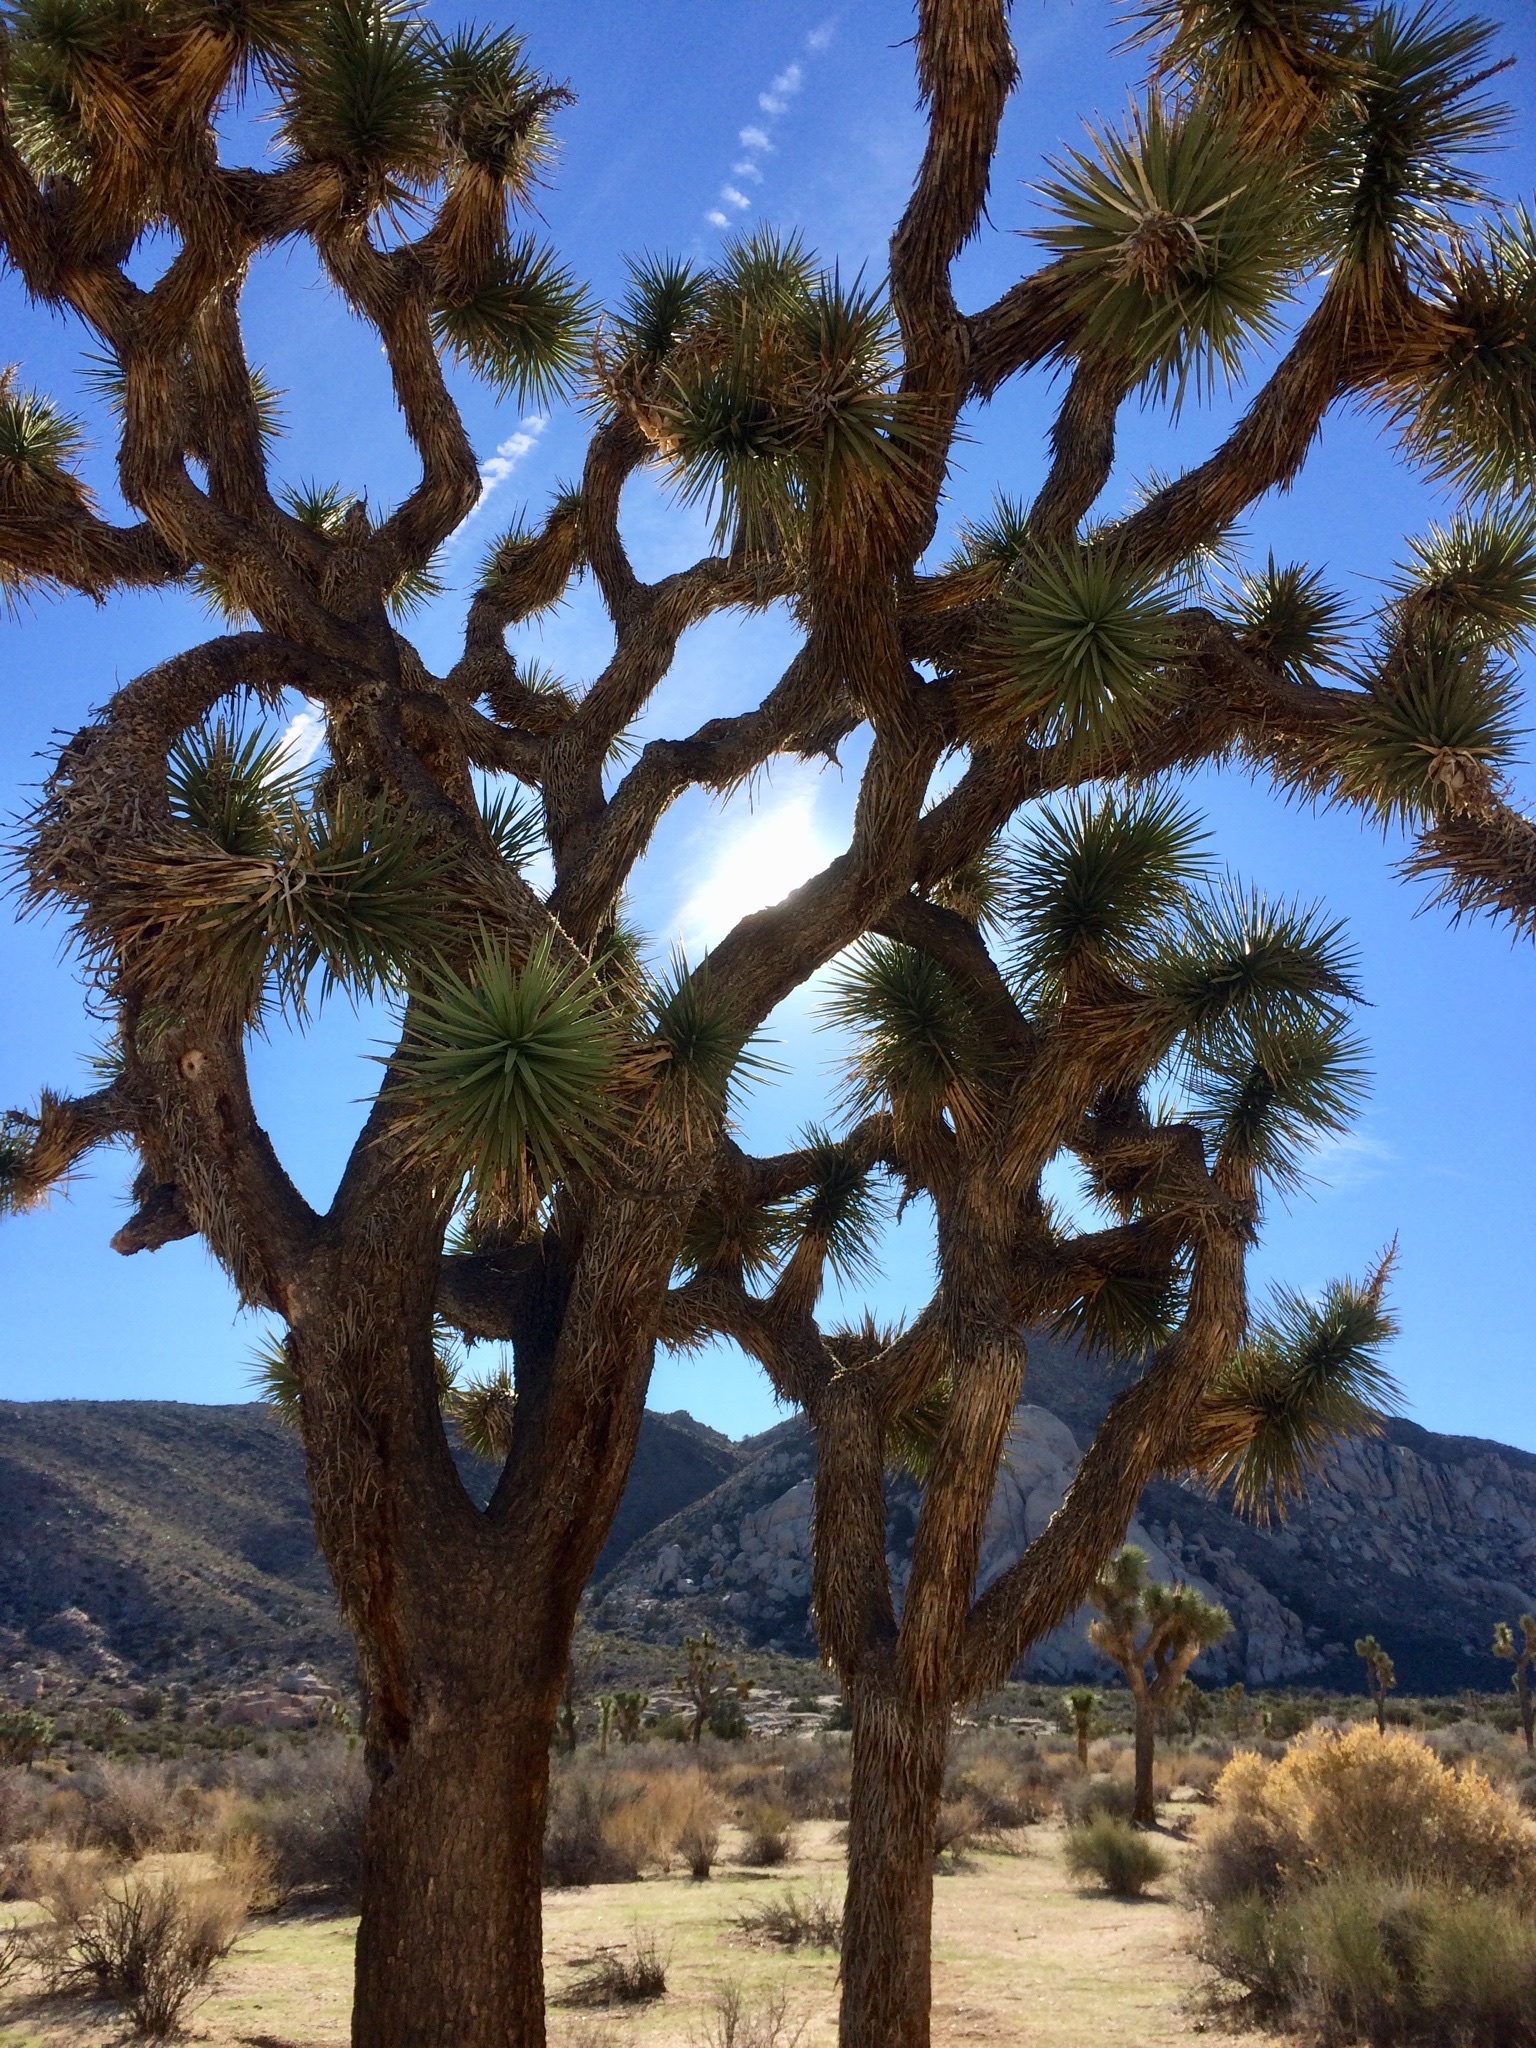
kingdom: Plantae
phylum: Tracheophyta
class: Liliopsida
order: Asparagales
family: Asparagaceae
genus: Yucca
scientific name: Yucca brevifolia
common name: Joshua tree
